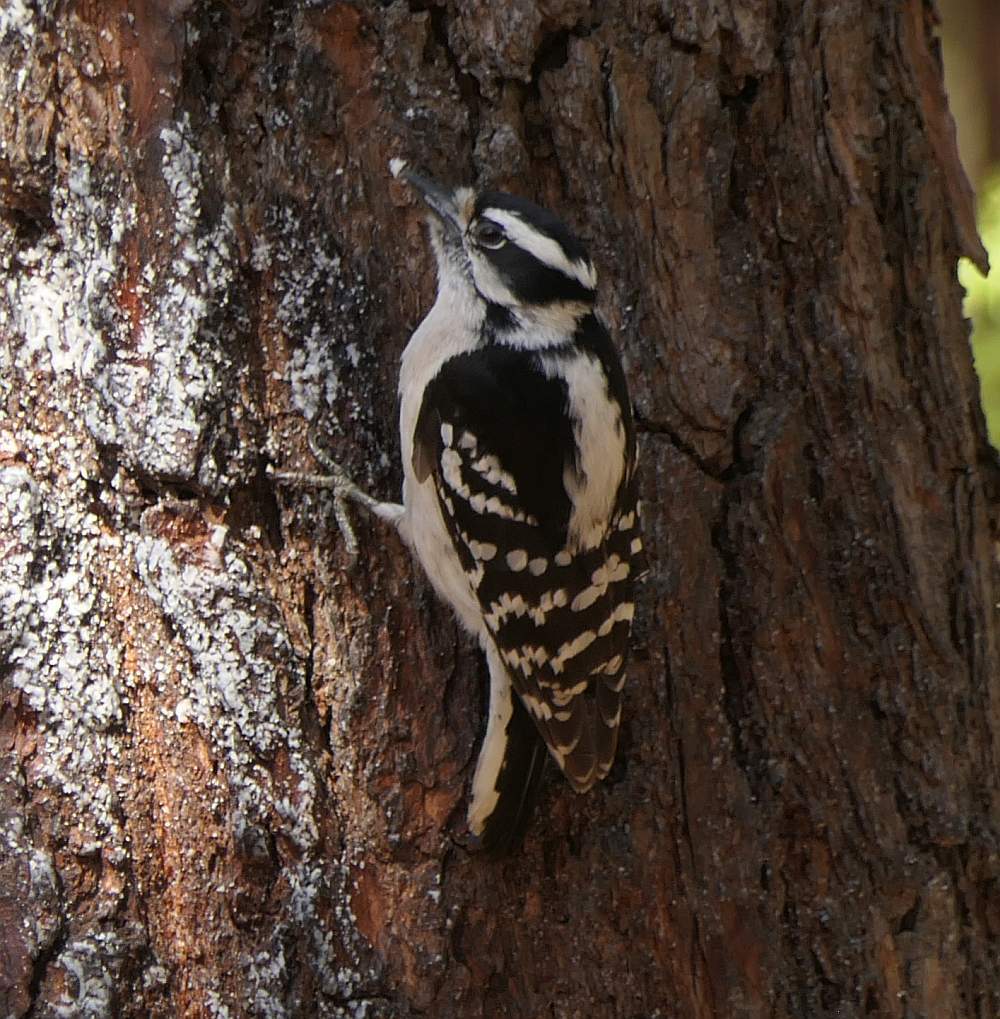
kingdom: Animalia
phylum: Chordata
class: Aves
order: Piciformes
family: Picidae
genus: Dryobates
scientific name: Dryobates pubescens
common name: Downy woodpecker
